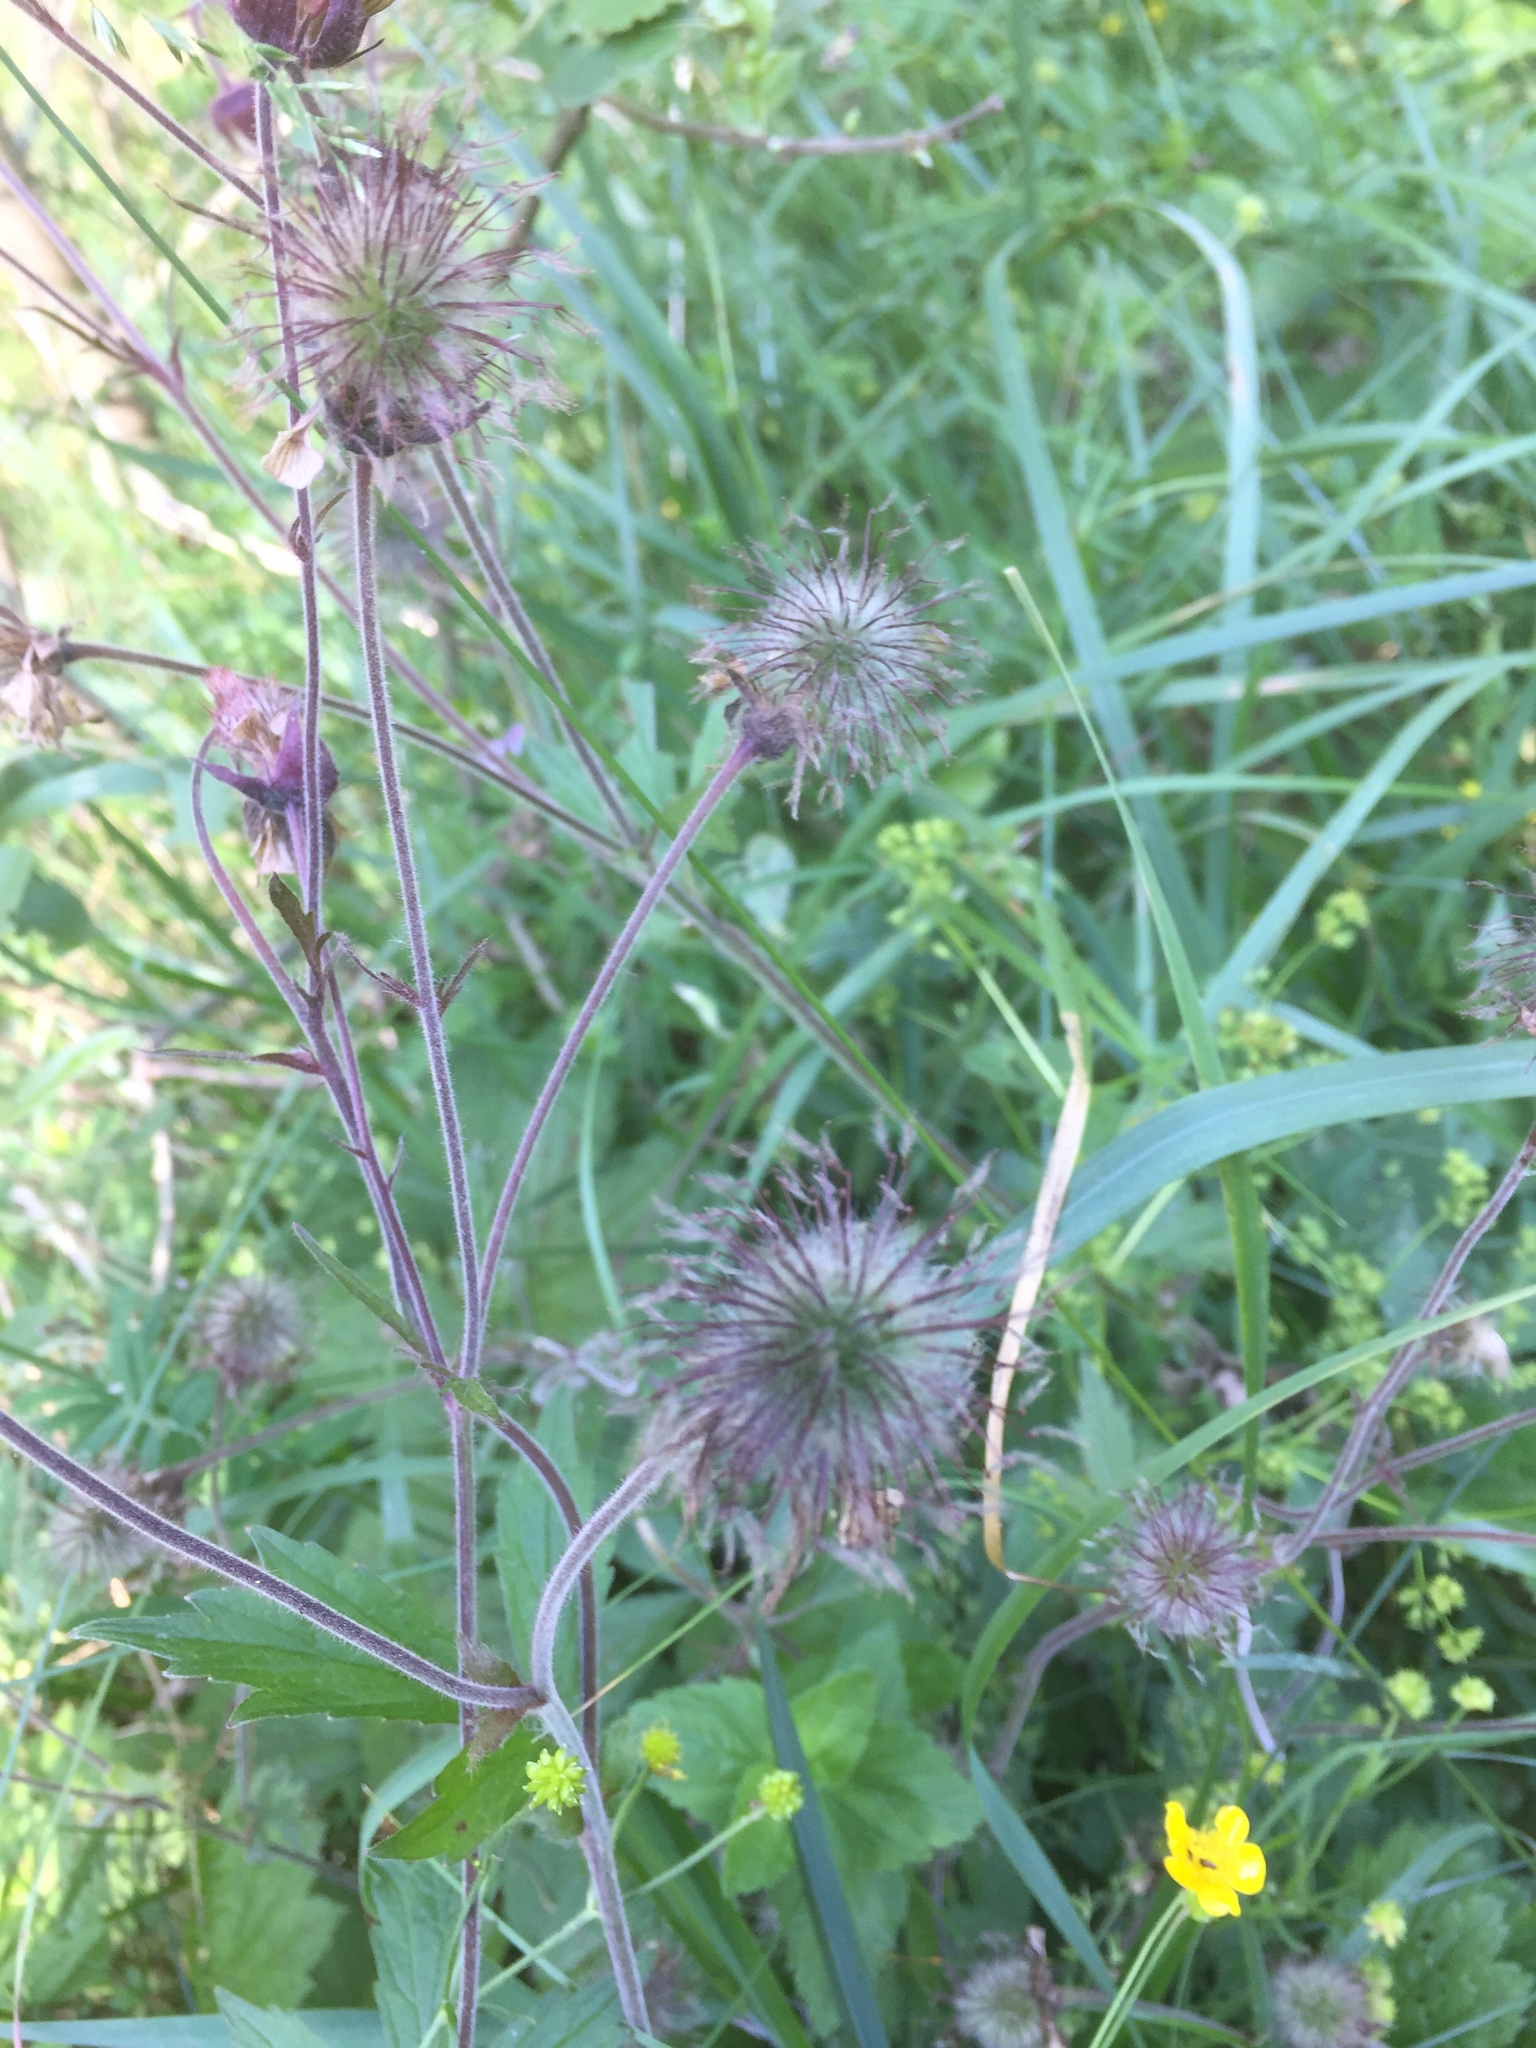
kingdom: Plantae
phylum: Tracheophyta
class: Magnoliopsida
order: Rosales
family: Rosaceae
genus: Geum
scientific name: Geum rivale
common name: Water avens
